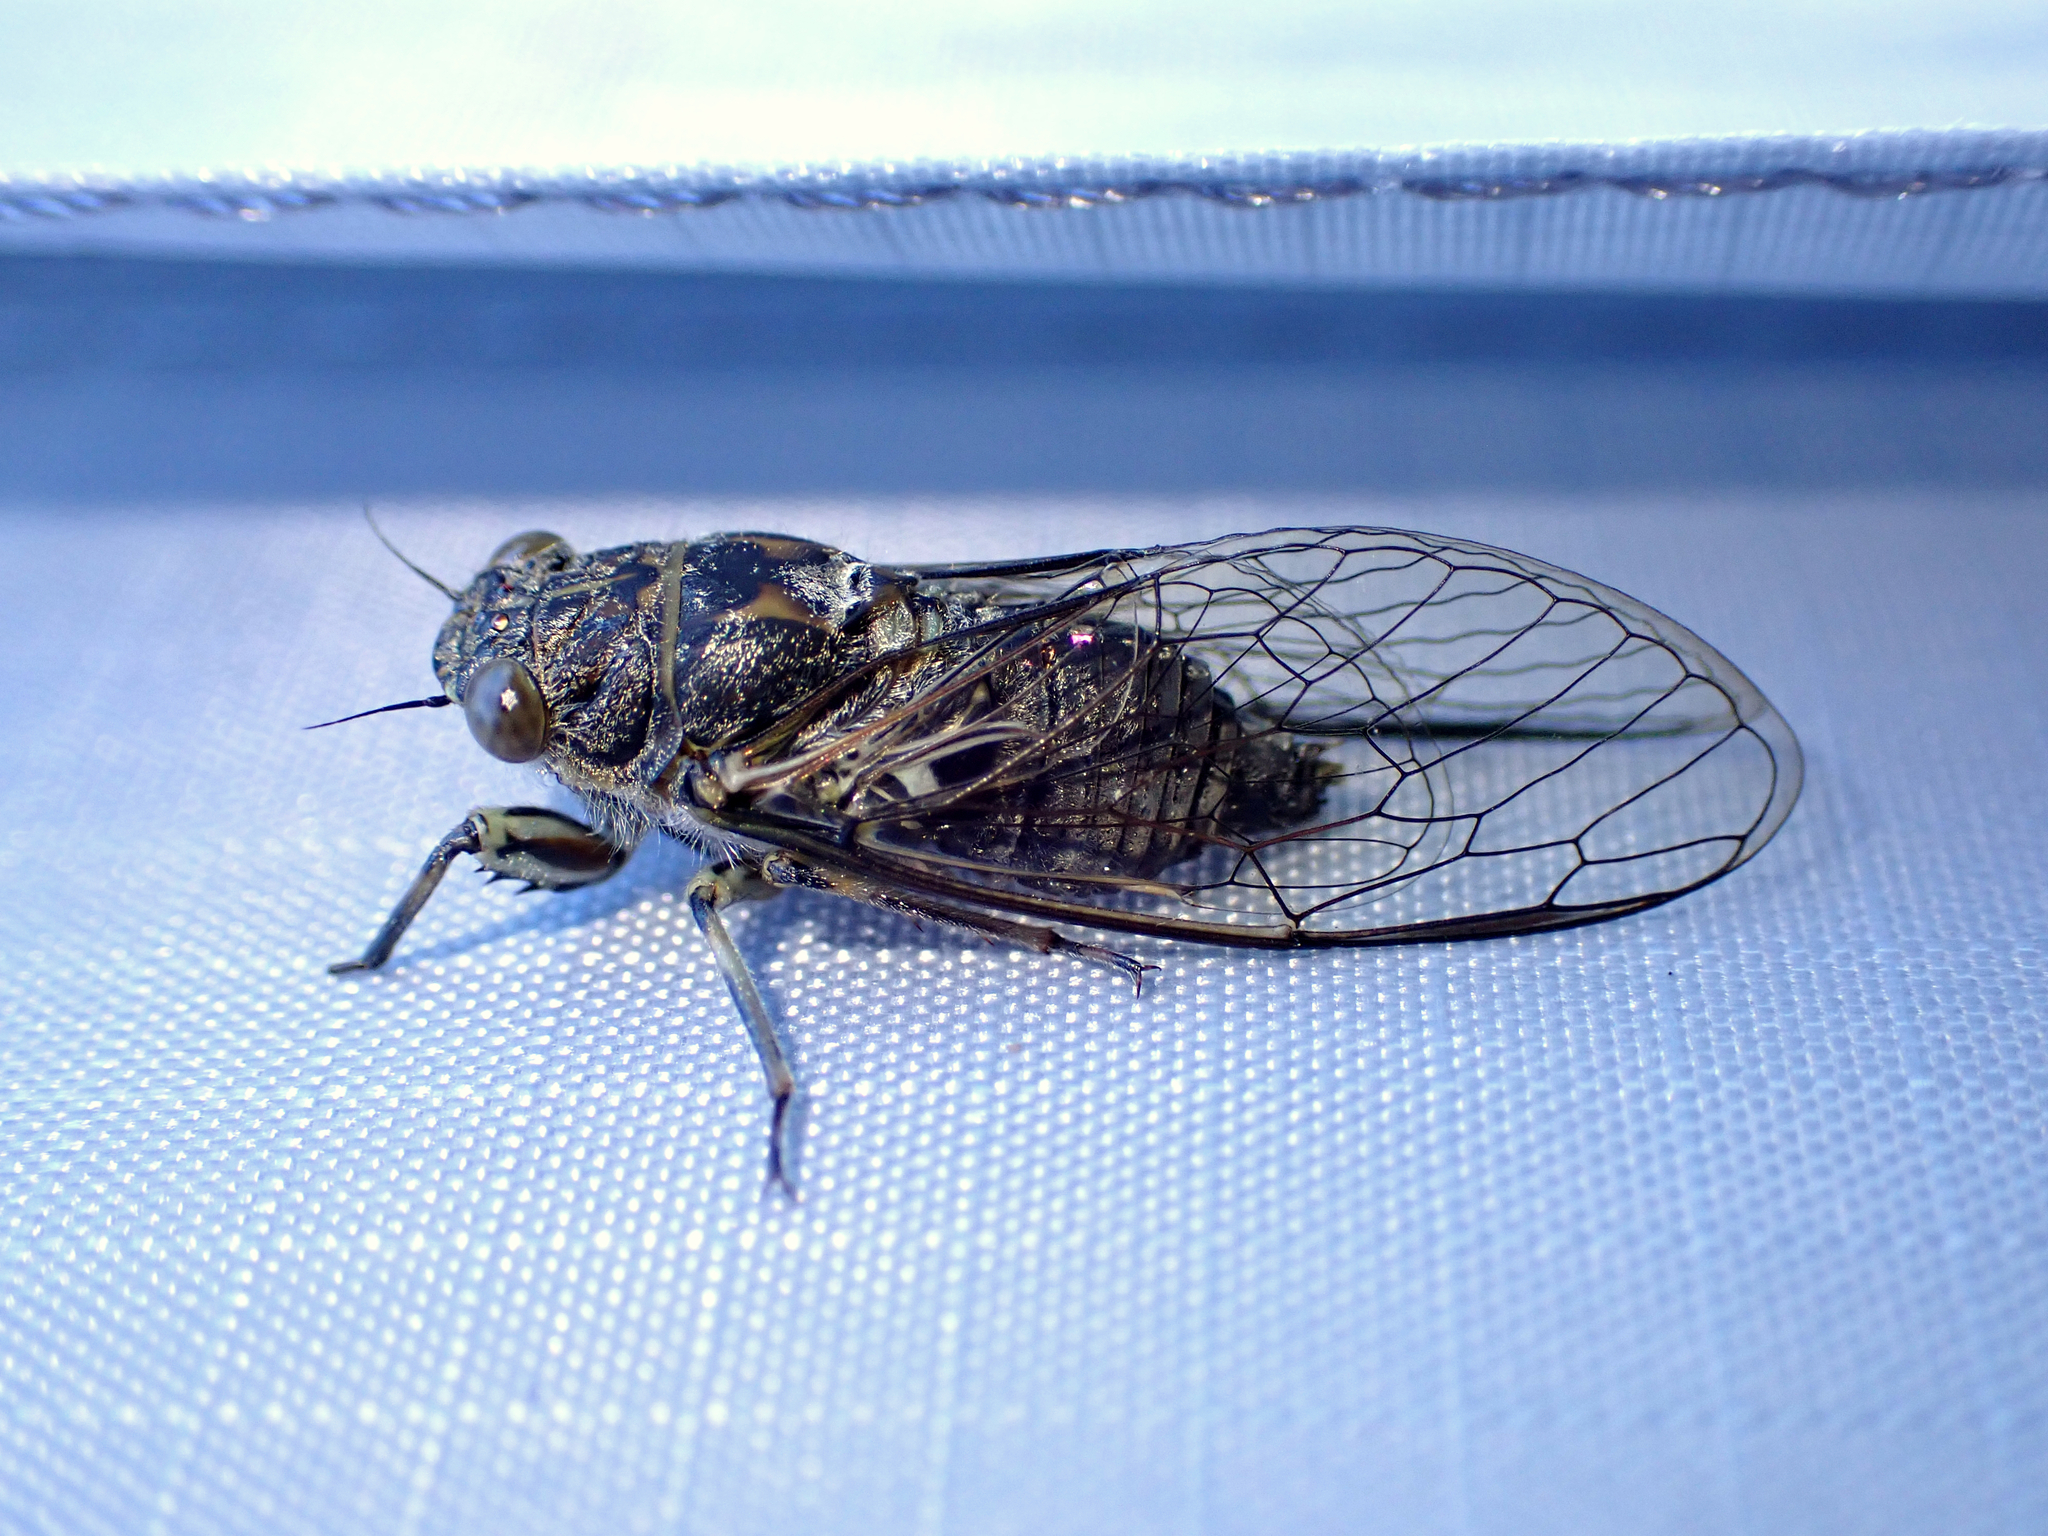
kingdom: Animalia
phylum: Arthropoda
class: Insecta
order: Hemiptera
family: Cicadidae
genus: Notopsalta
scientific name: Notopsalta sericea
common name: Clay bank cicada
